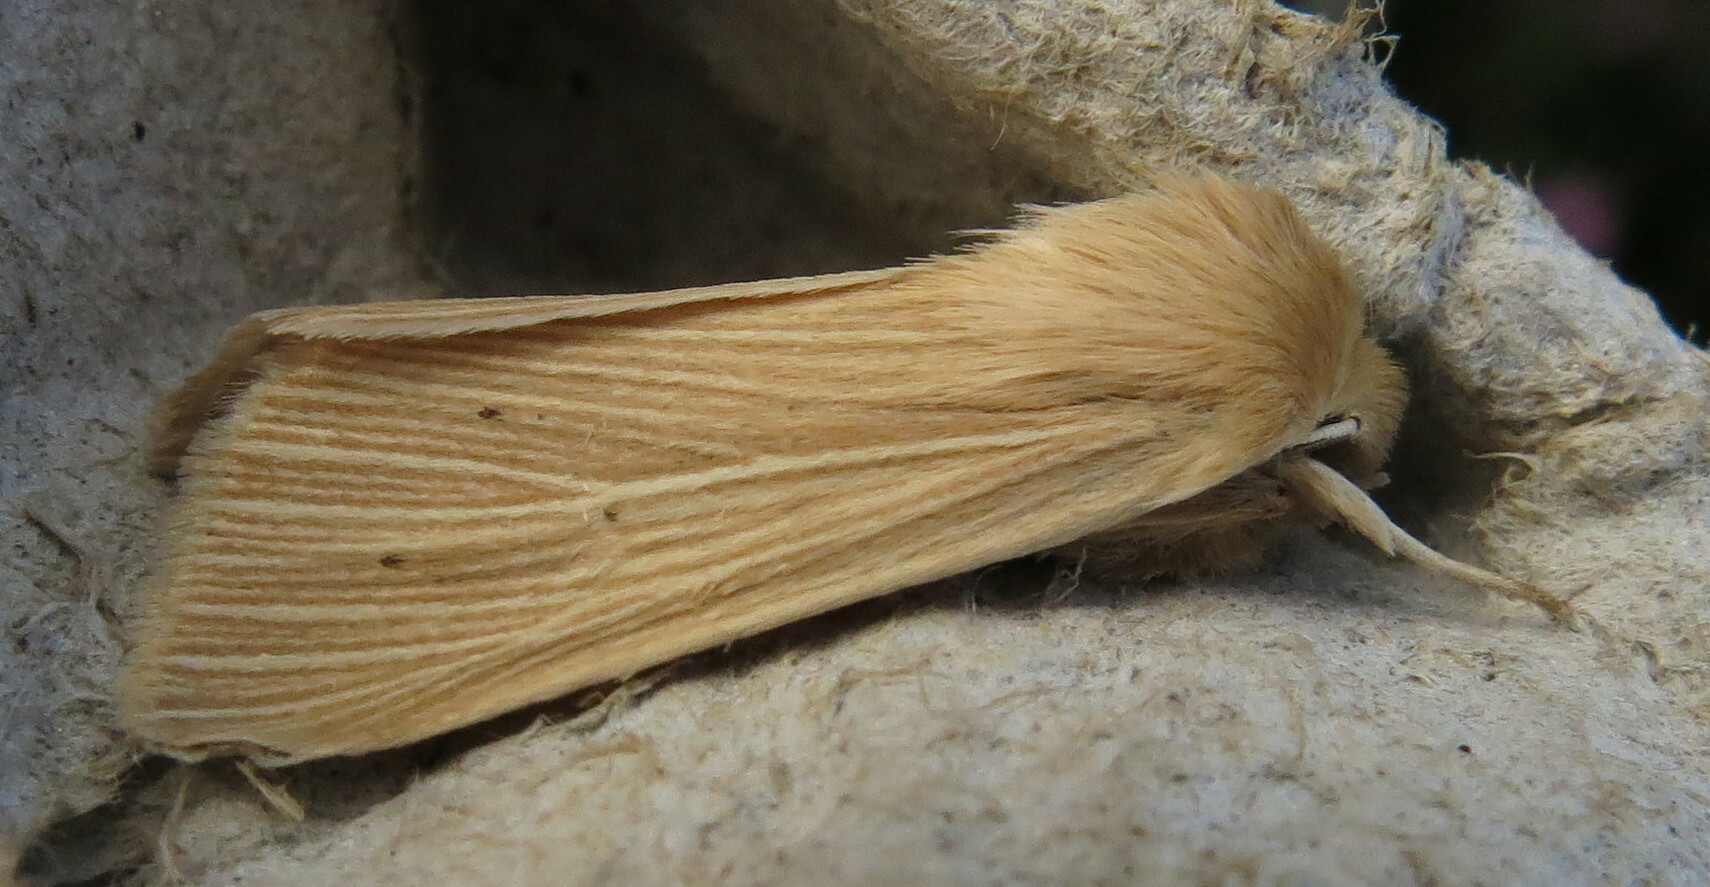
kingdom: Animalia
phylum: Arthropoda
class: Insecta
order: Lepidoptera
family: Noctuidae
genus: Mythimna
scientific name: Mythimna pallens
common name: Common wainscot
